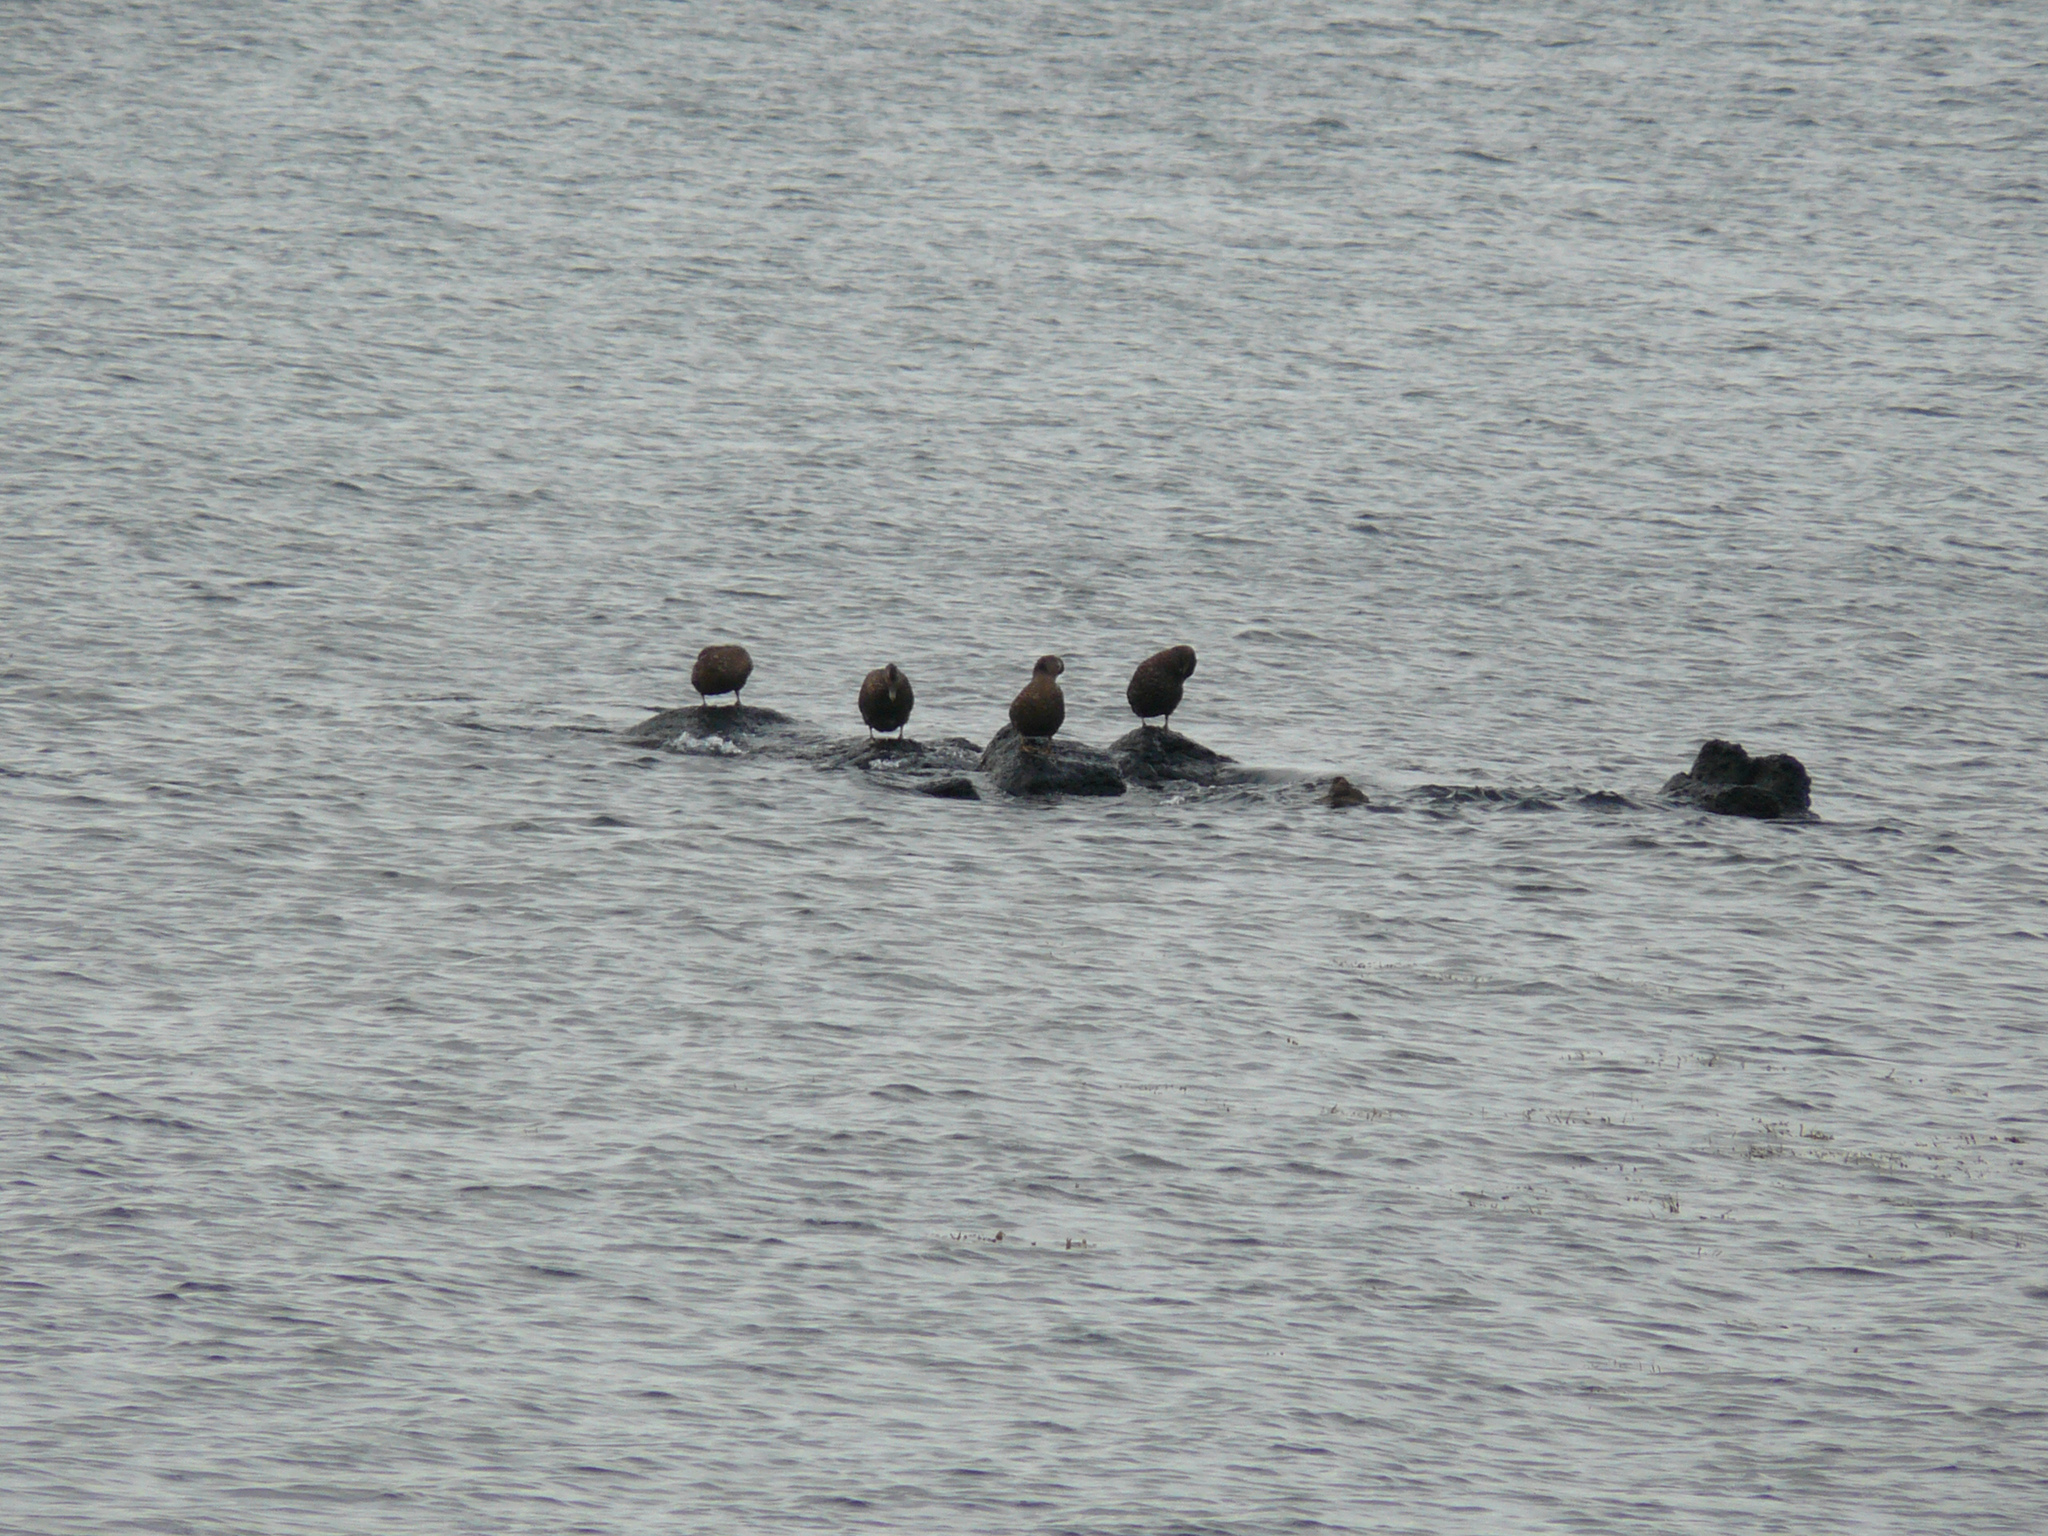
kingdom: Animalia
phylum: Chordata
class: Aves
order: Anseriformes
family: Anatidae
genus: Somateria
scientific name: Somateria mollissima
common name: Common eider
